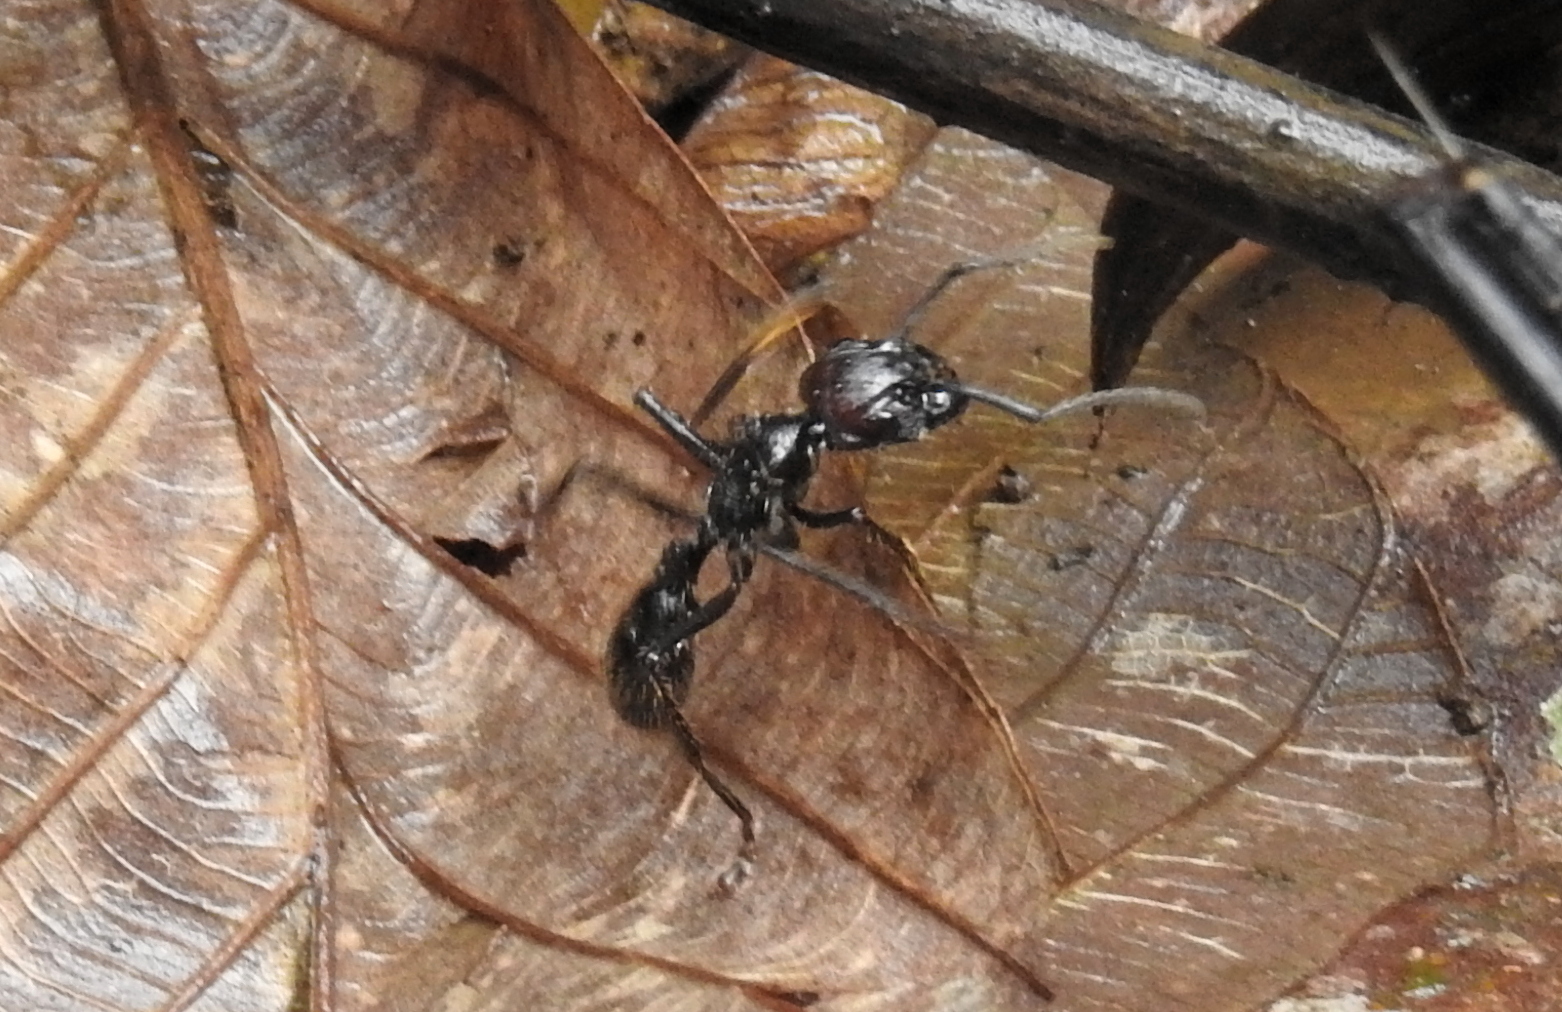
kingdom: Animalia
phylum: Arthropoda
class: Insecta
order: Hymenoptera
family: Formicidae
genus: Paraponera
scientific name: Paraponera clavata
